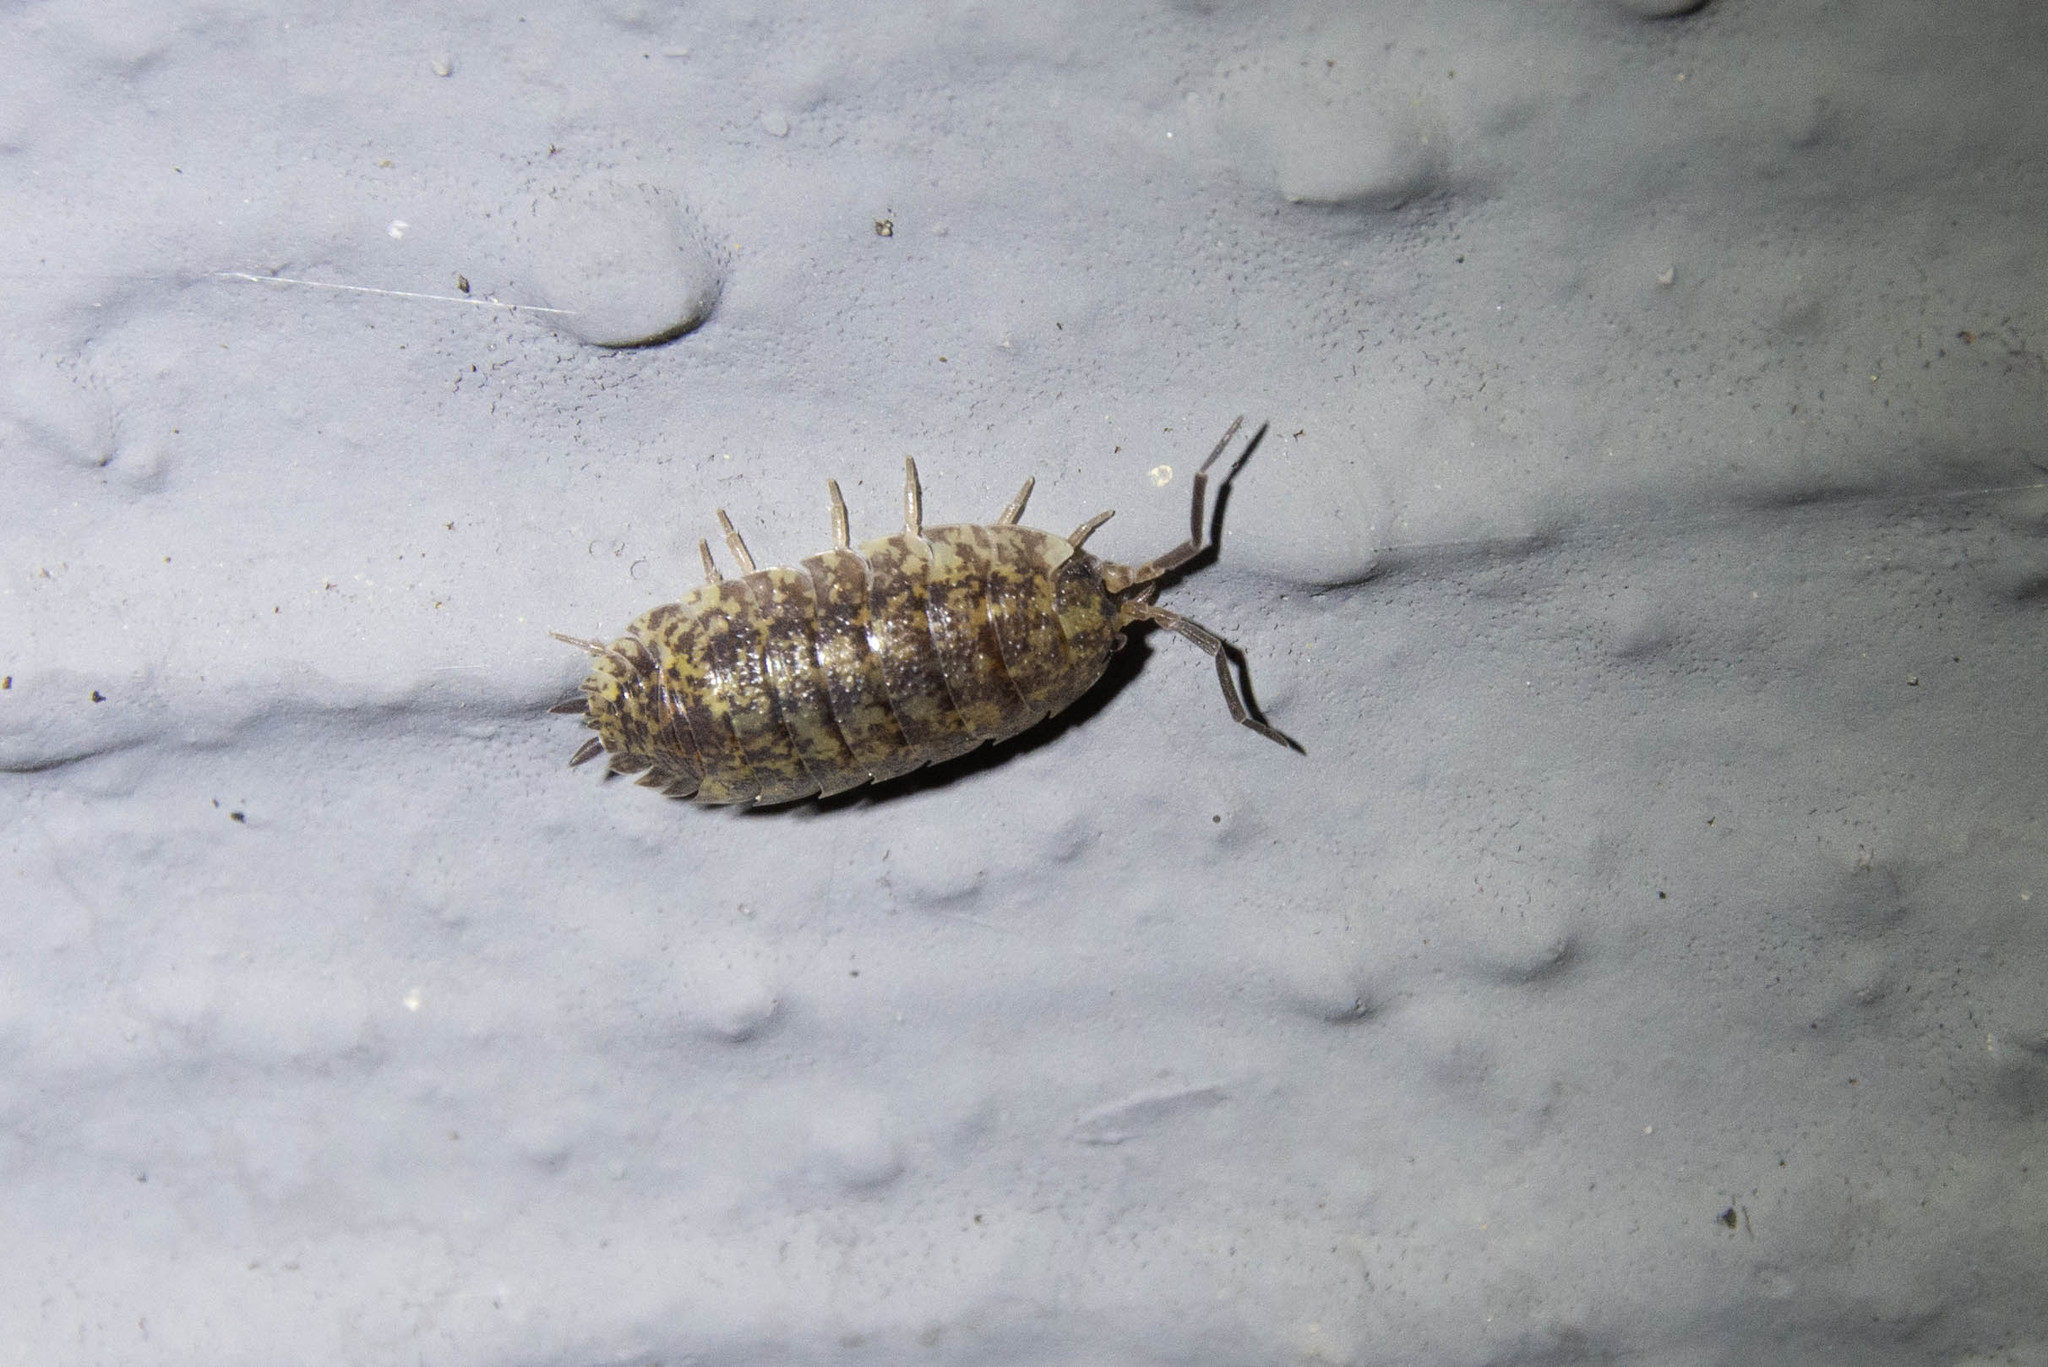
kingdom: Animalia
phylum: Arthropoda
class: Malacostraca
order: Isopoda
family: Porcellionidae
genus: Porcellio
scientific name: Porcellio scaber
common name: Common rough woodlouse
